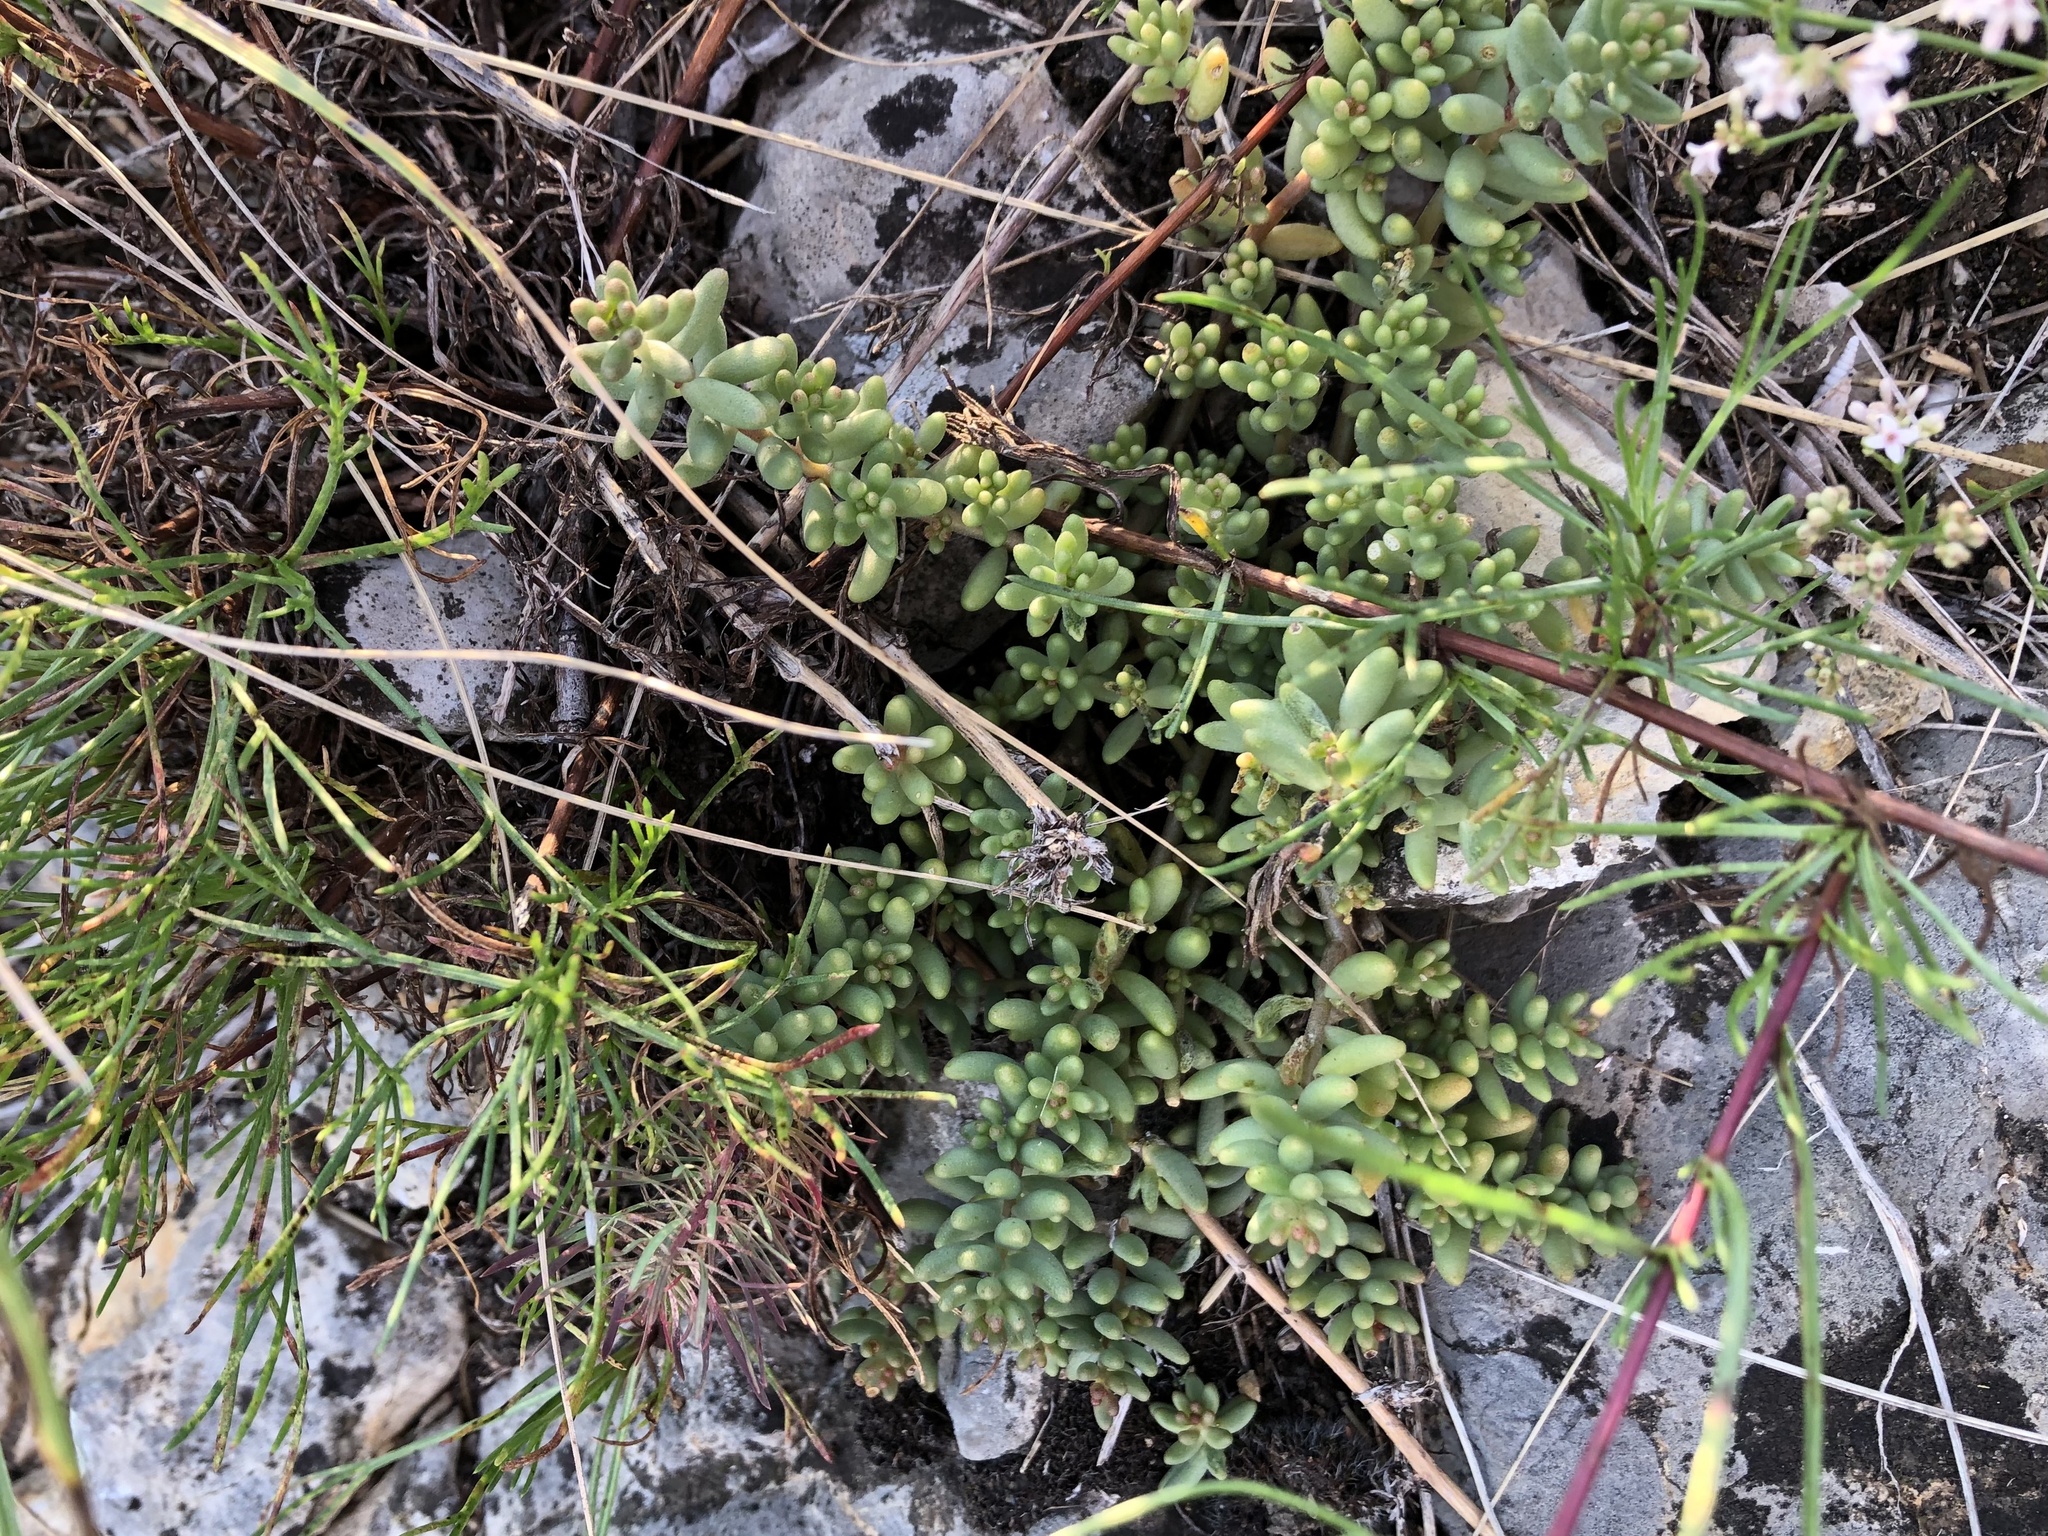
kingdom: Plantae
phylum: Tracheophyta
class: Magnoliopsida
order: Saxifragales
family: Crassulaceae
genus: Sedum
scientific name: Sedum album
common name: White stonecrop
